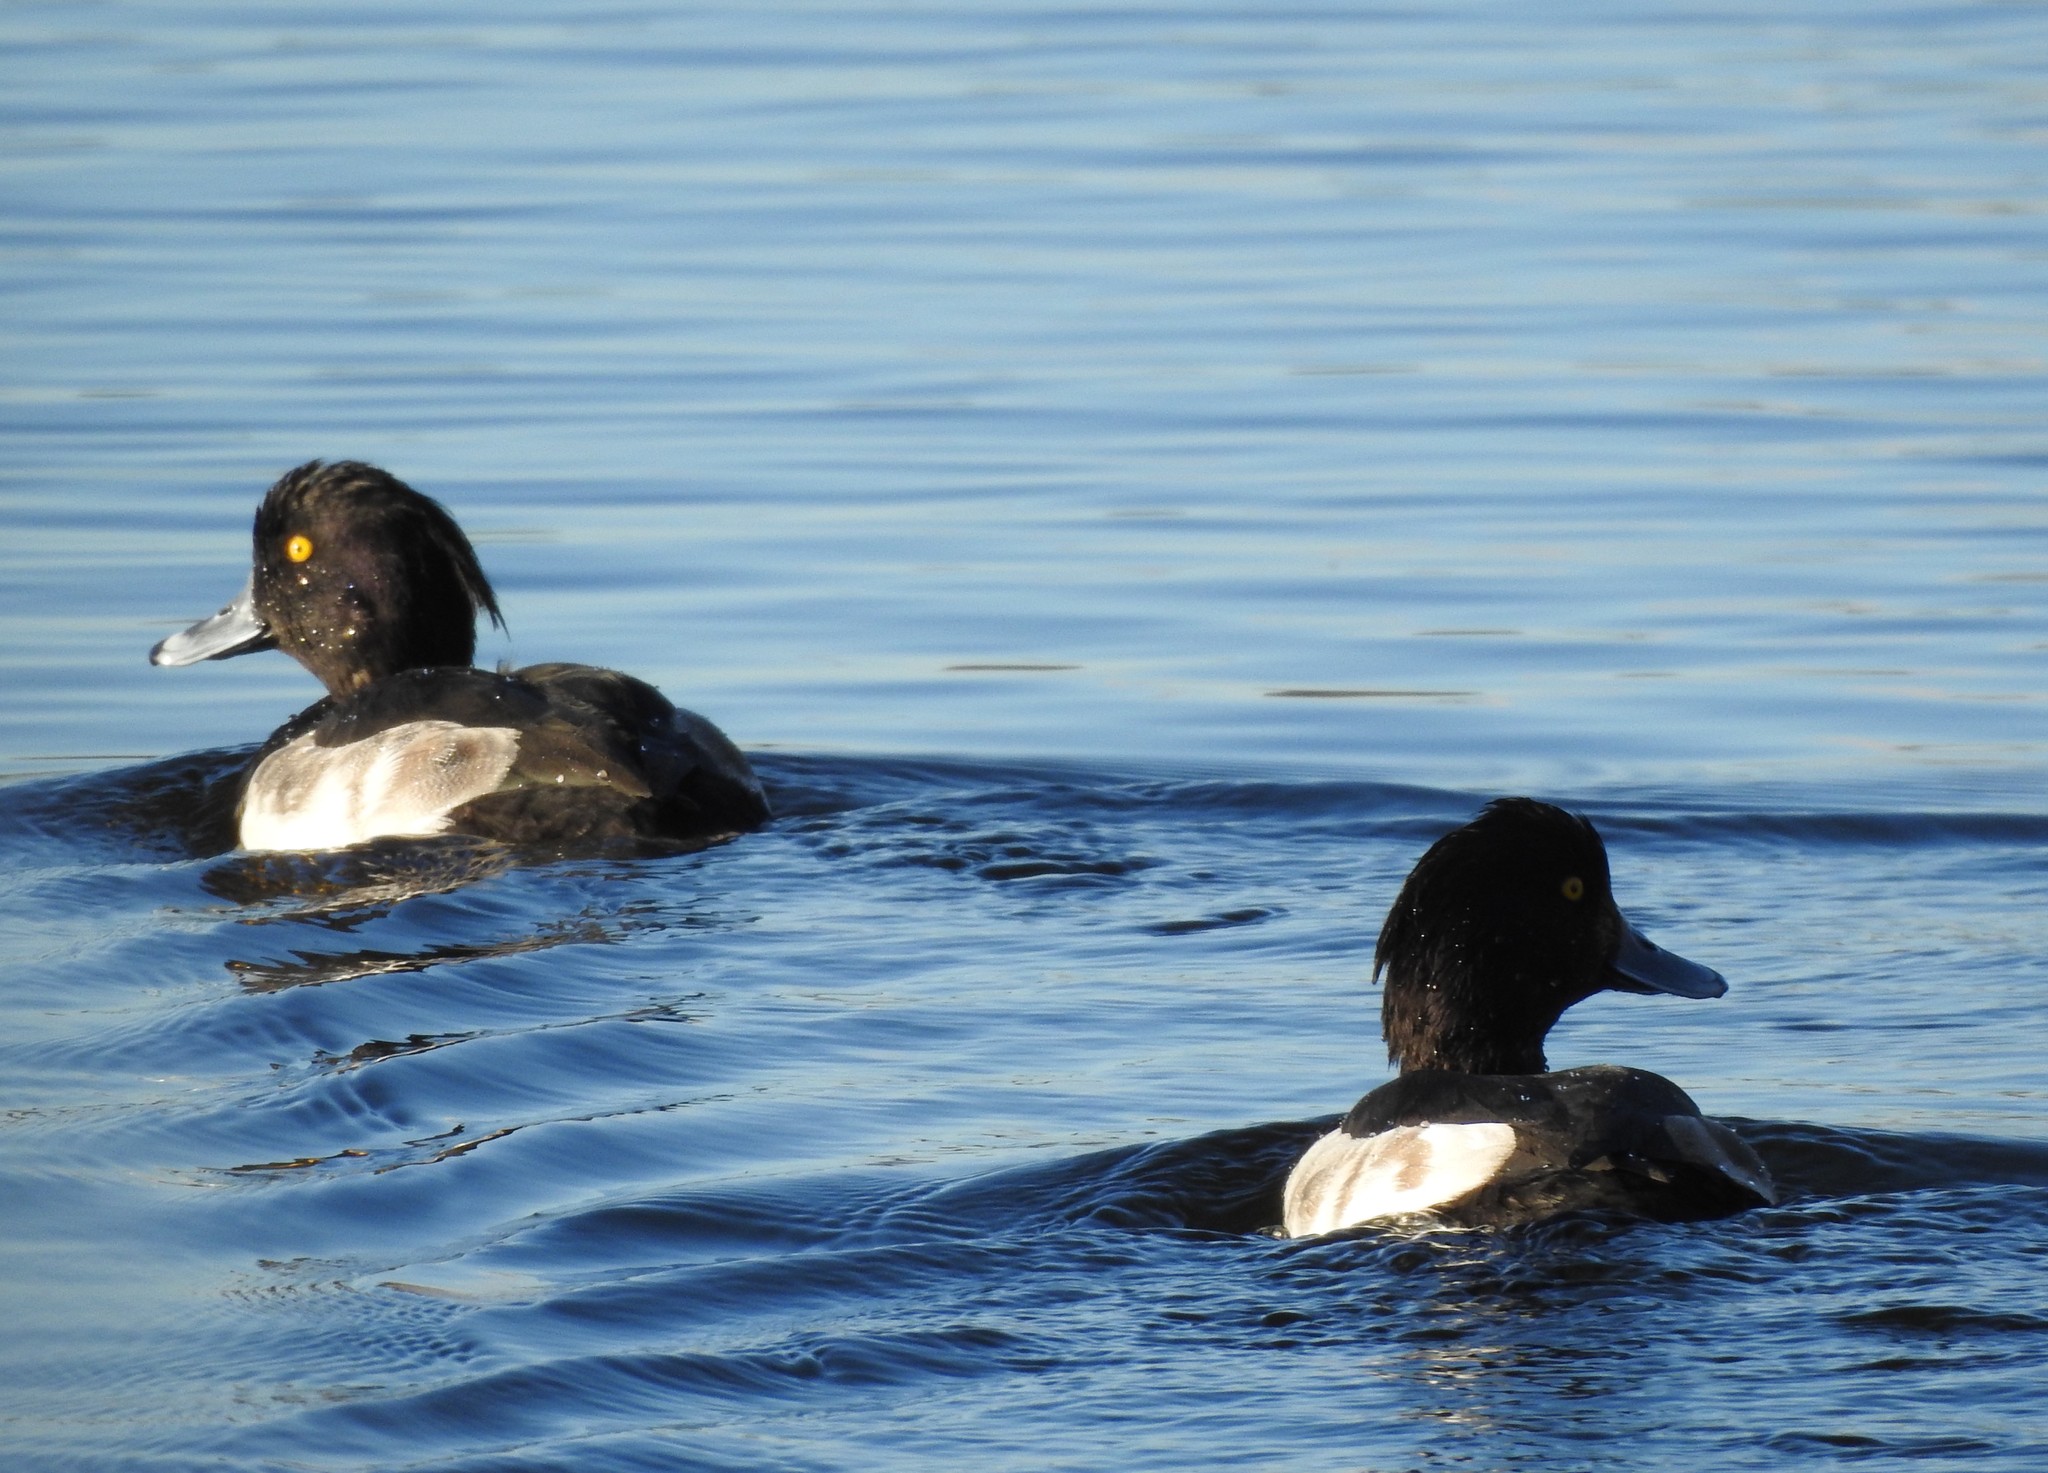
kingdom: Animalia
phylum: Chordata
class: Aves
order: Anseriformes
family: Anatidae
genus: Aythya
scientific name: Aythya fuligula
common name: Tufted duck
